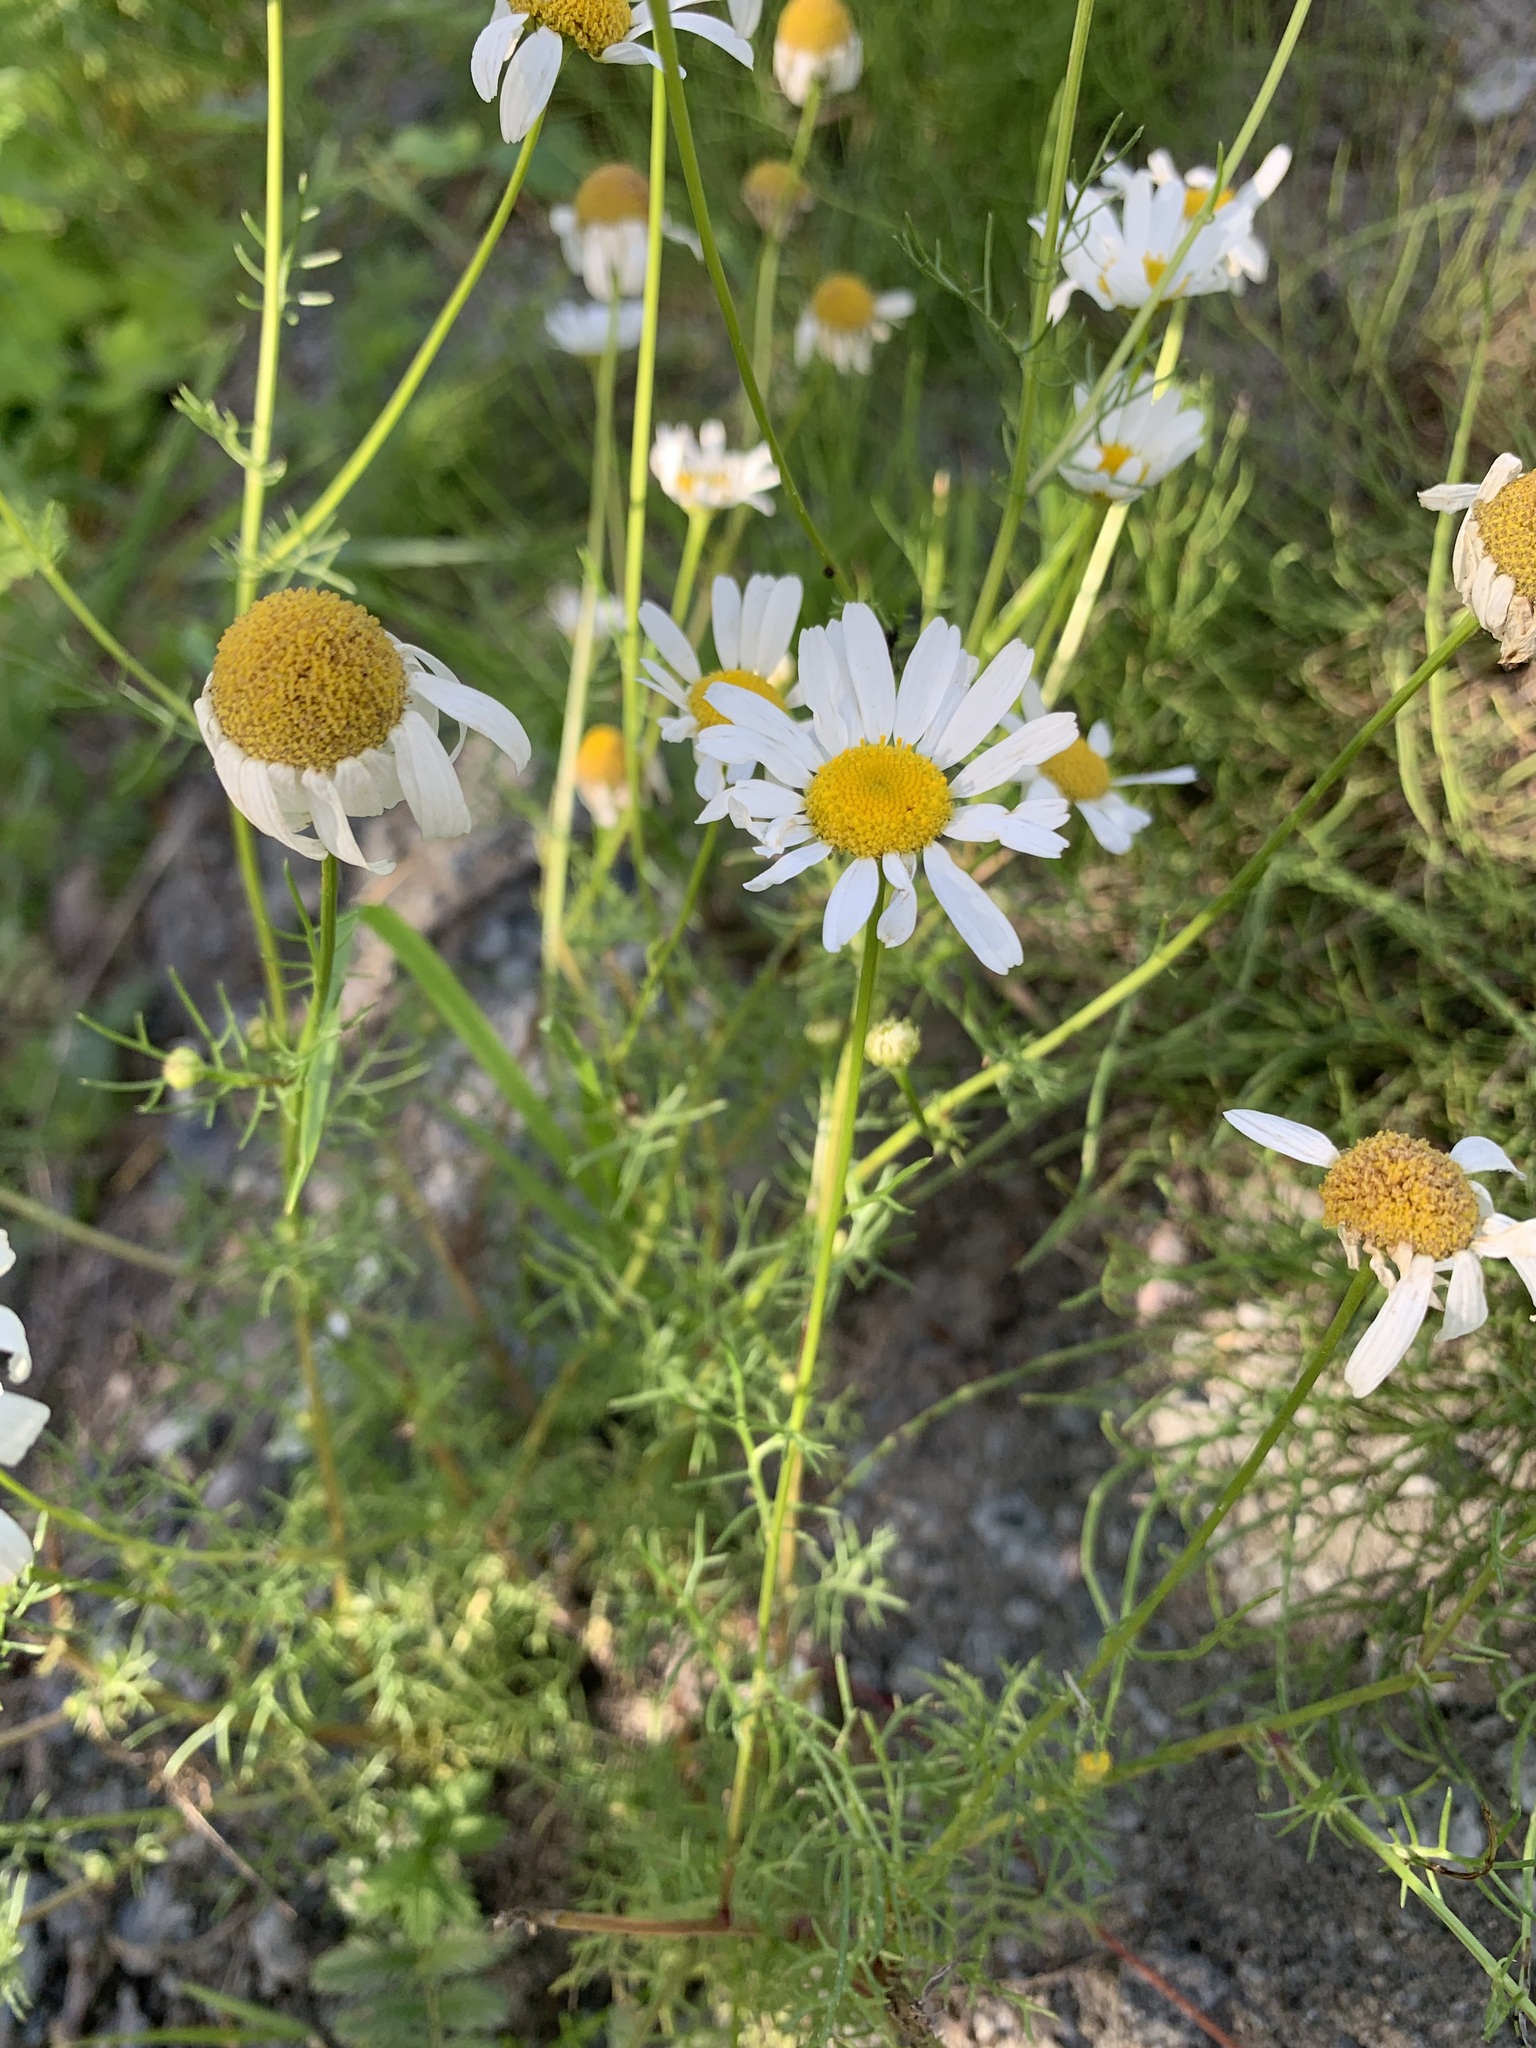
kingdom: Plantae
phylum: Tracheophyta
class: Magnoliopsida
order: Asterales
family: Asteraceae
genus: Tripleurospermum
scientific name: Tripleurospermum inodorum
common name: Scentless mayweed
